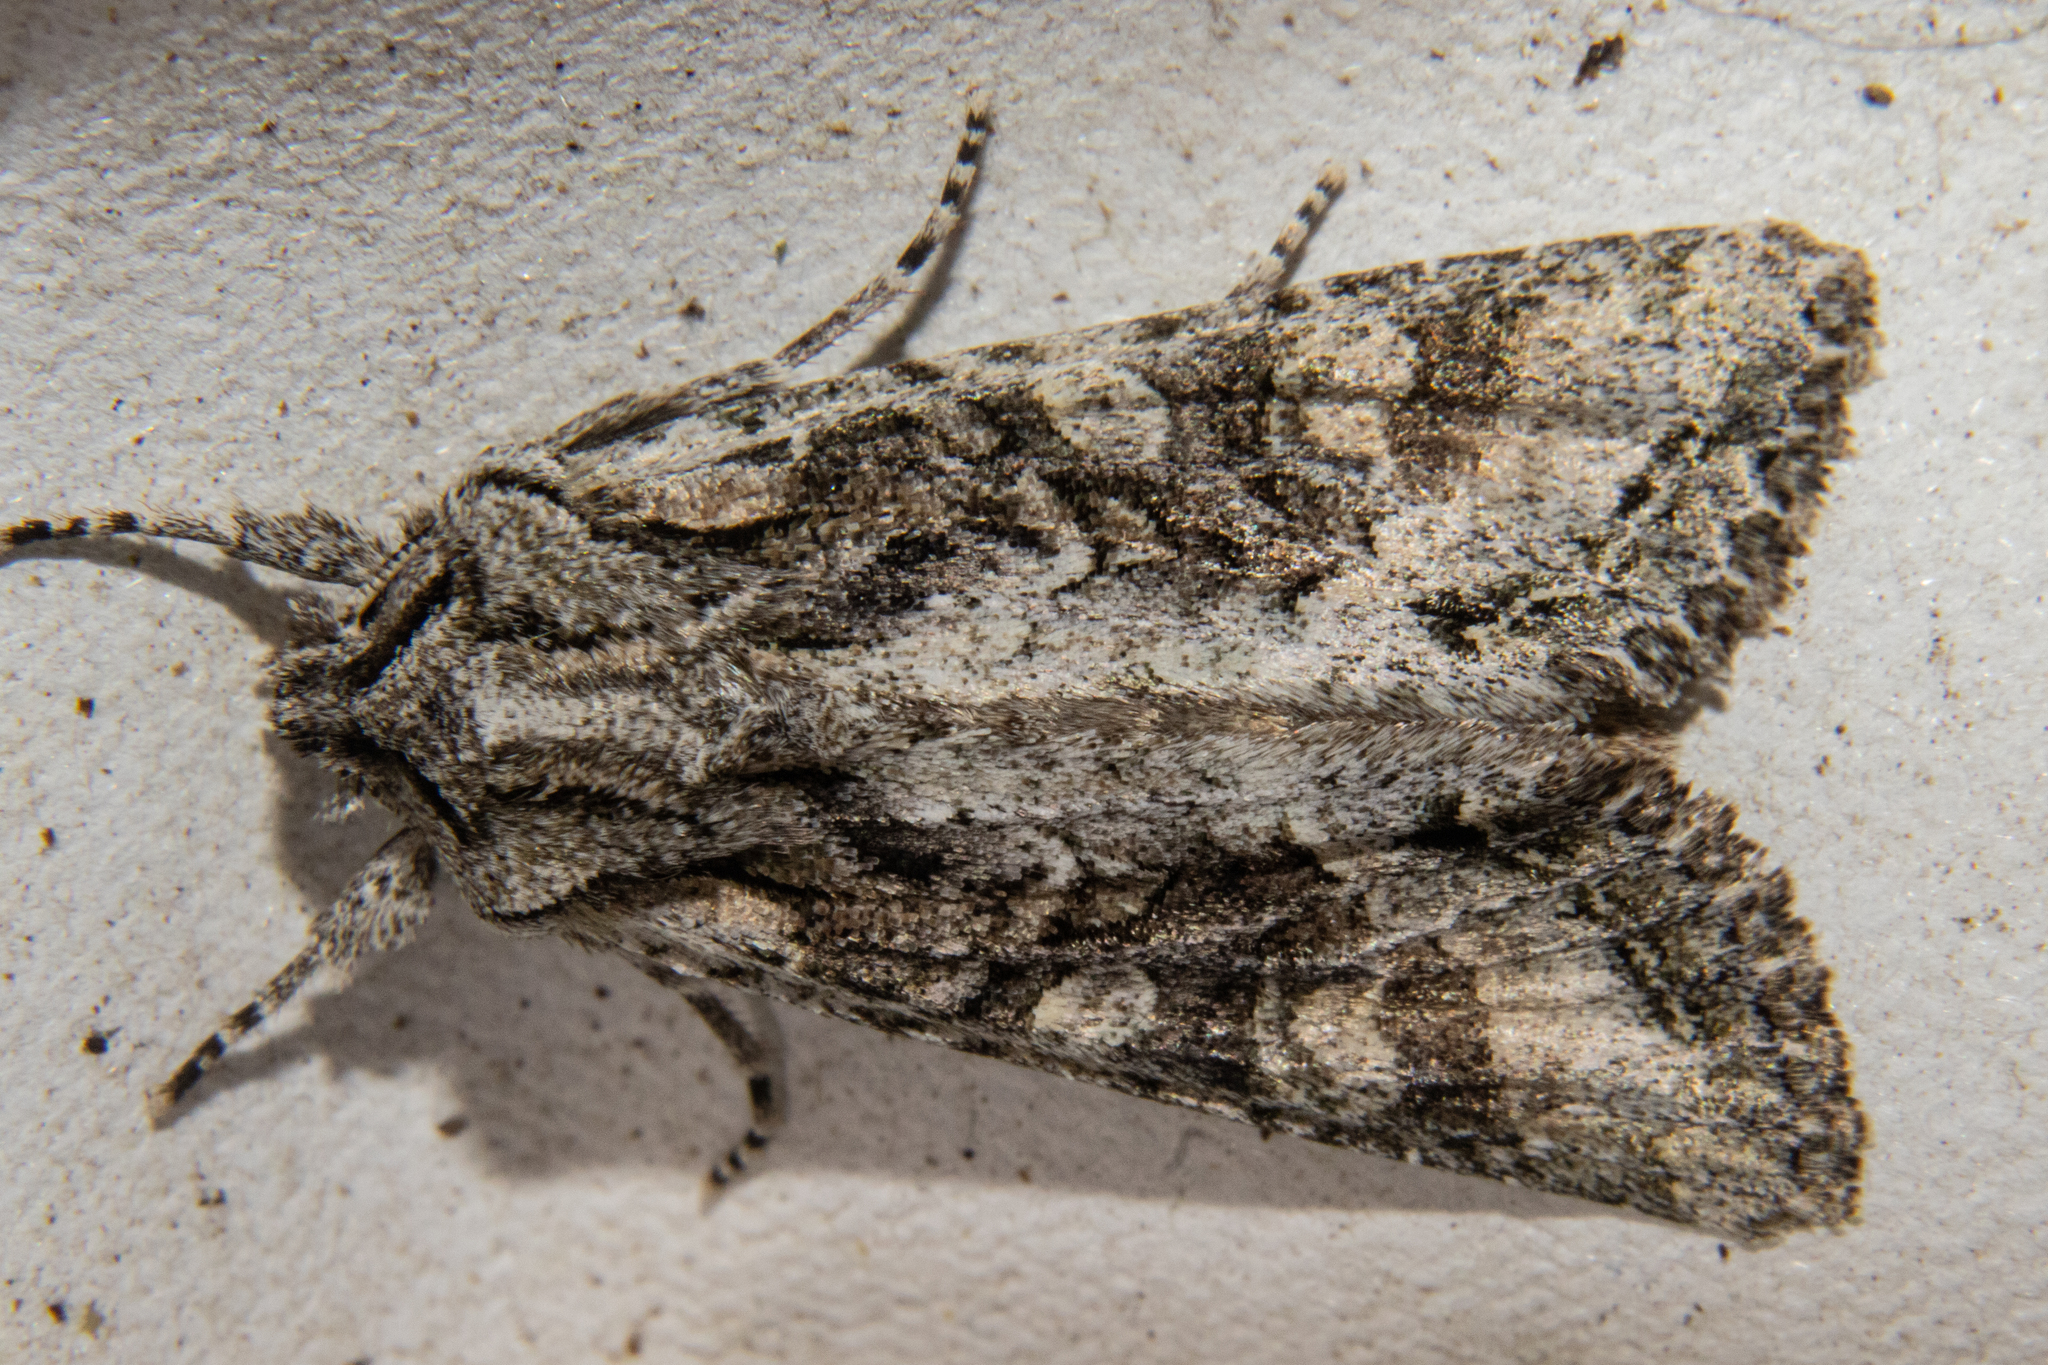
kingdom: Animalia
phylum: Arthropoda
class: Insecta
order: Lepidoptera
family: Noctuidae
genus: Ichneutica
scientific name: Ichneutica mutans
